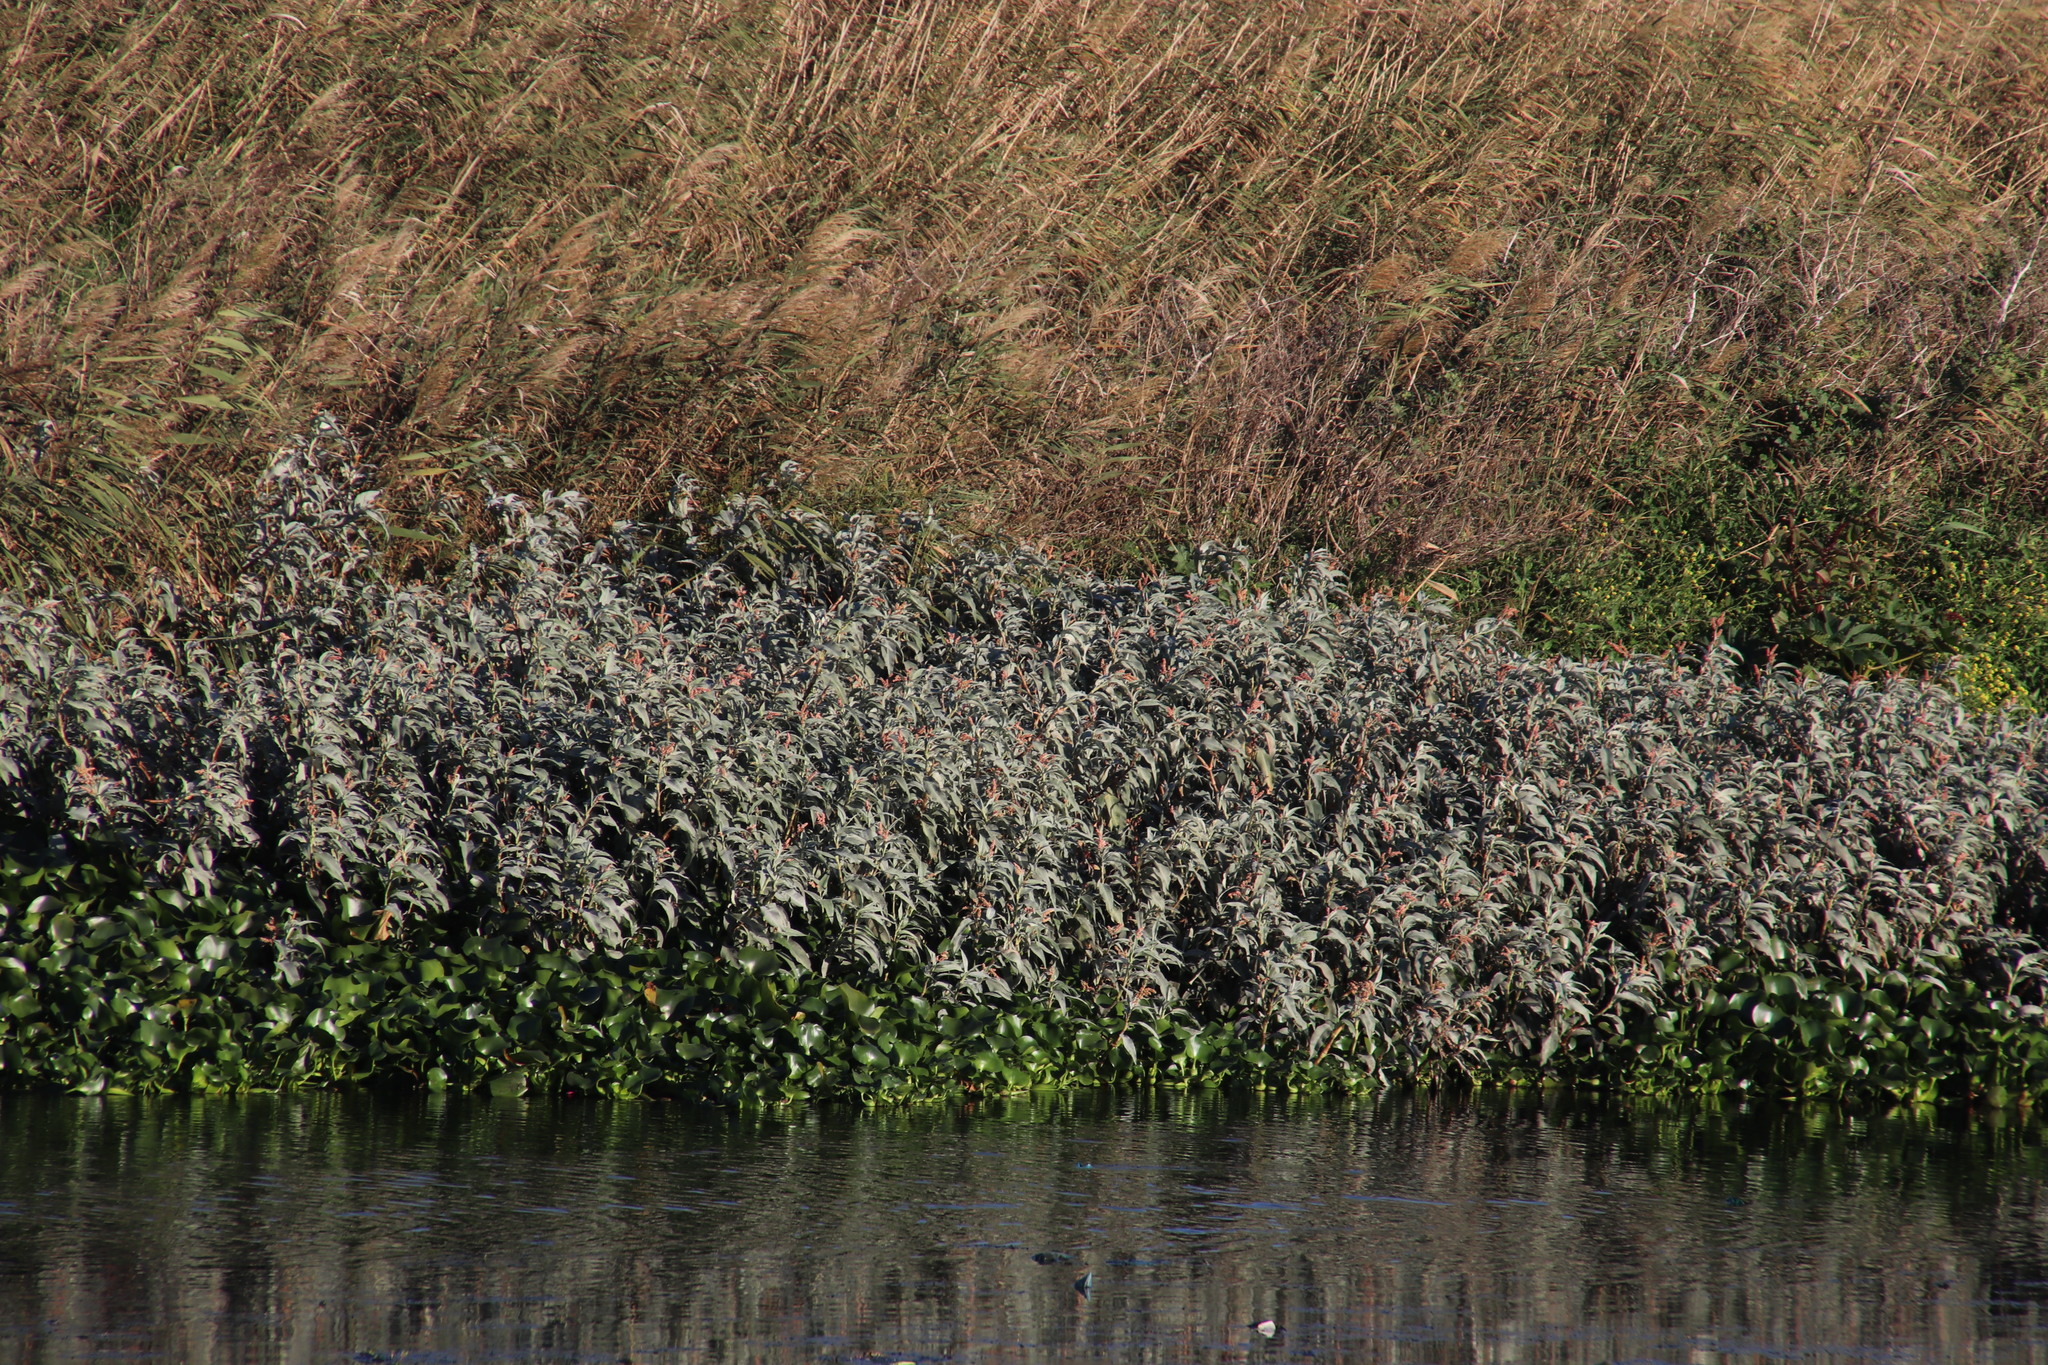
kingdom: Plantae
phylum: Tracheophyta
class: Magnoliopsida
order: Caryophyllales
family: Polygonaceae
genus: Persicaria
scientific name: Persicaria senegalensis
